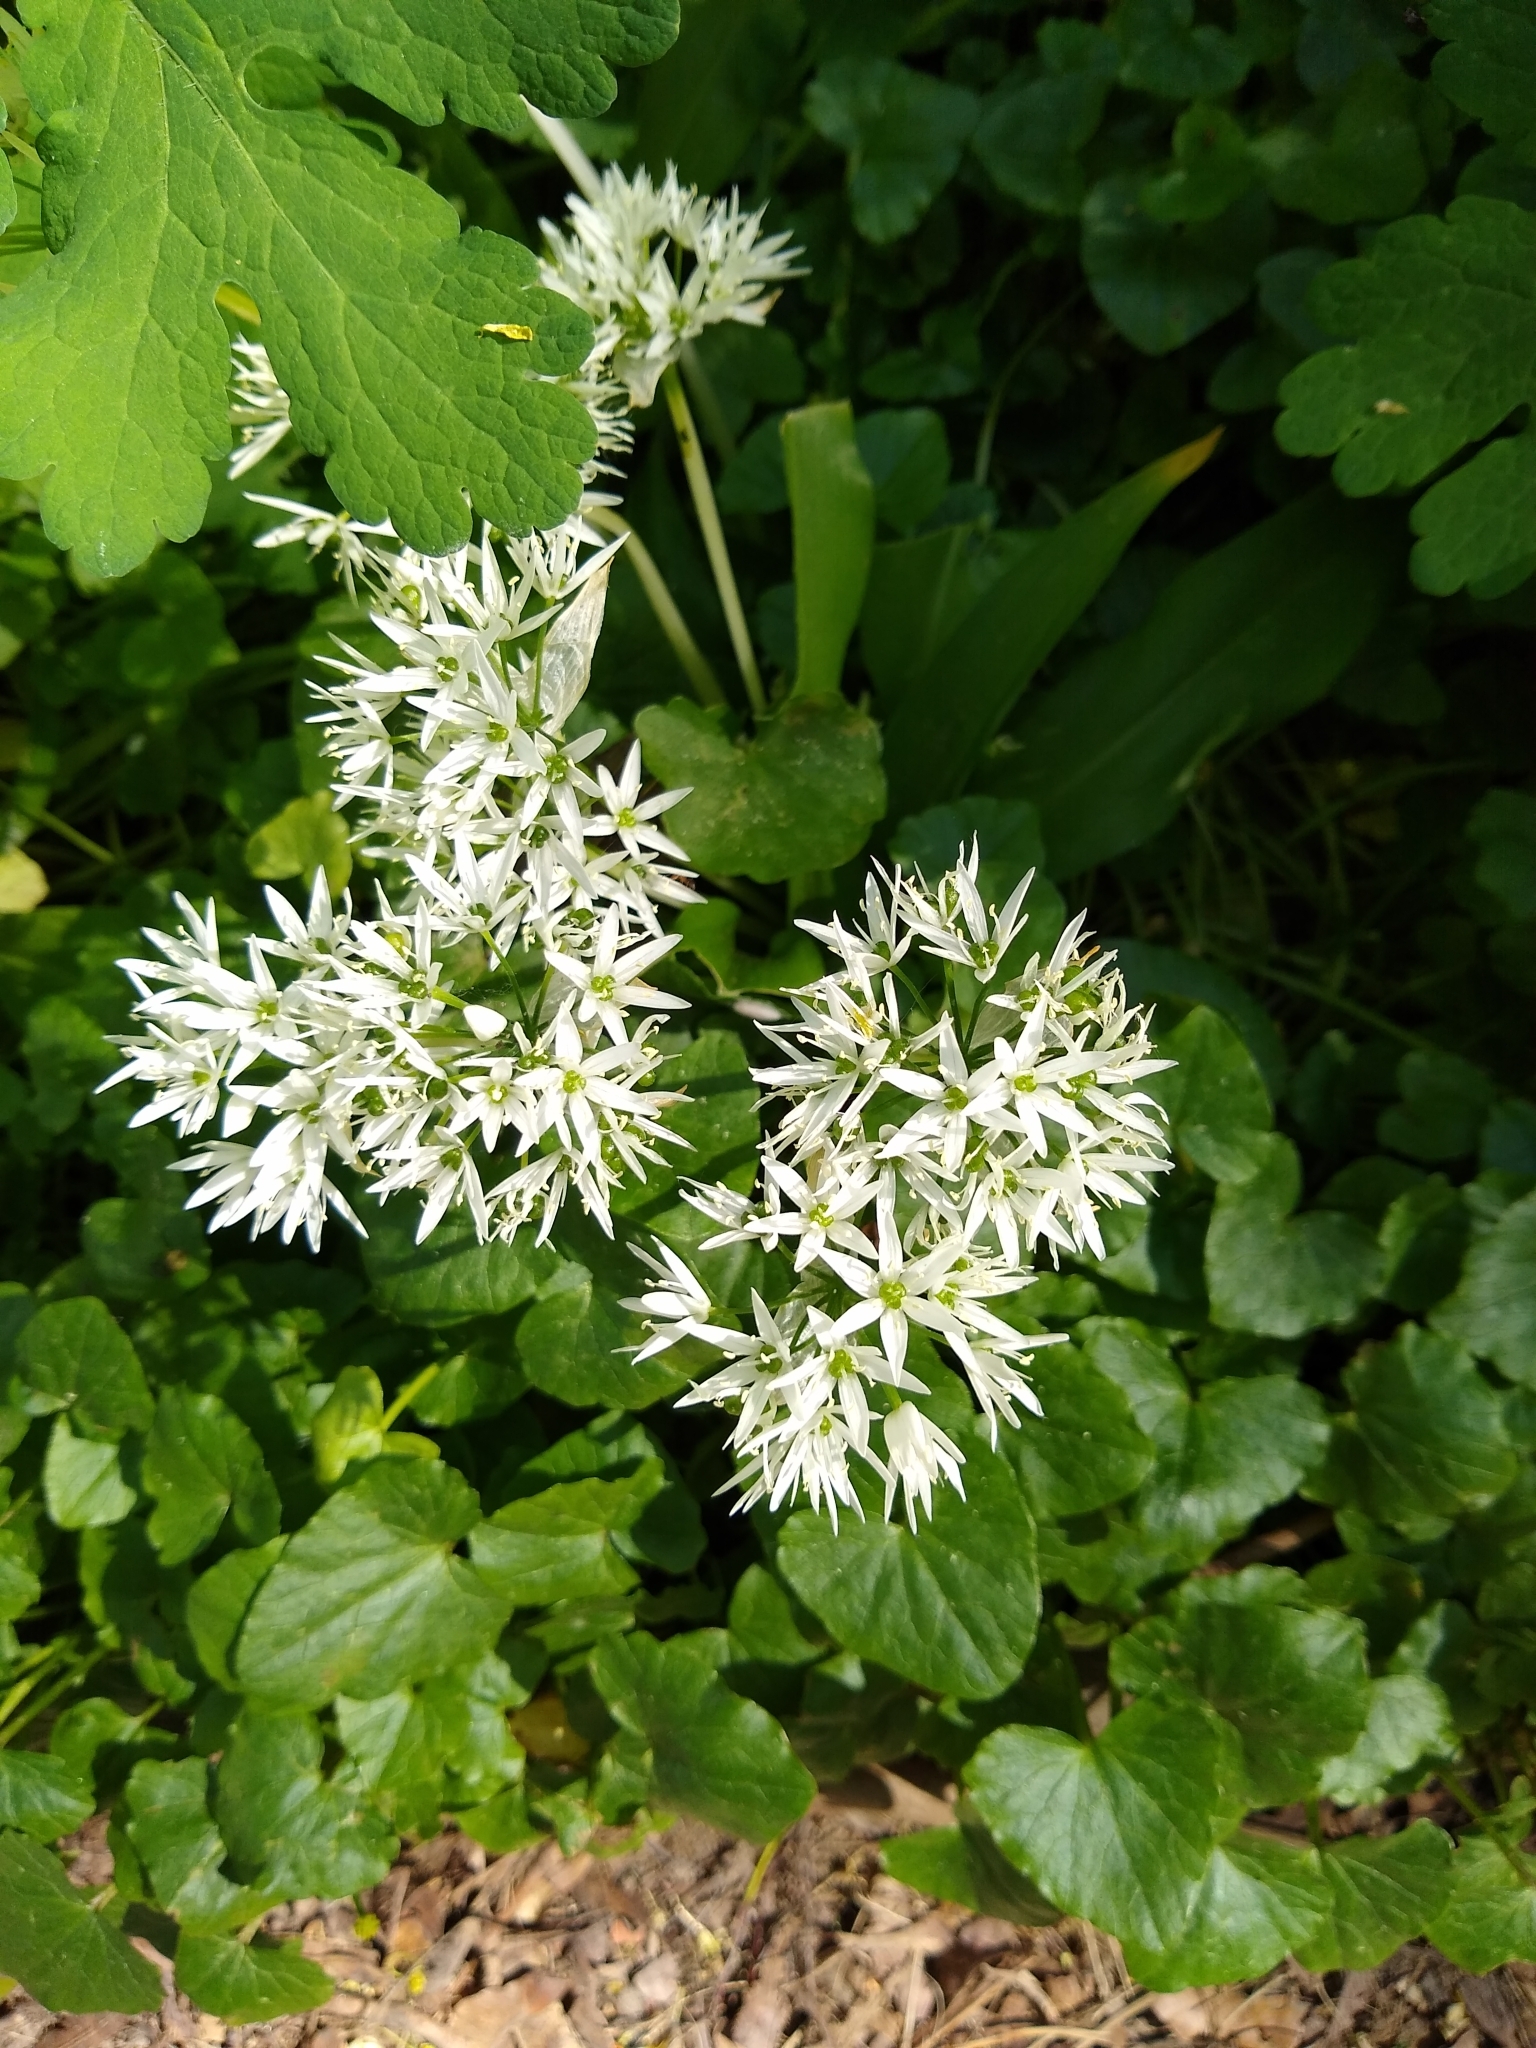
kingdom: Plantae
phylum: Tracheophyta
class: Liliopsida
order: Asparagales
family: Amaryllidaceae
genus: Allium
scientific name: Allium ursinum
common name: Ramsons
